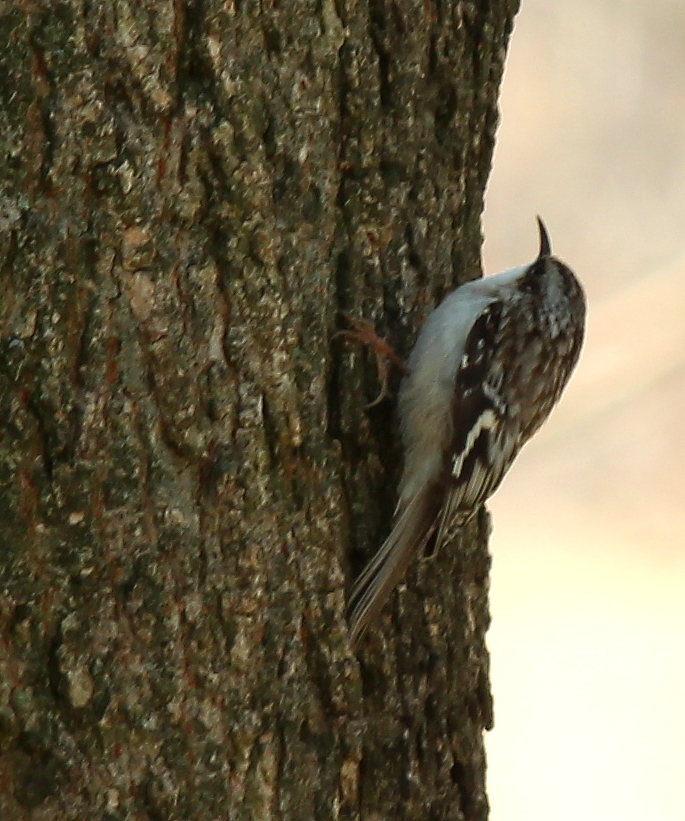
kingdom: Animalia
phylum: Chordata
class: Aves
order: Passeriformes
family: Certhiidae
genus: Certhia
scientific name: Certhia americana
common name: Brown creeper
